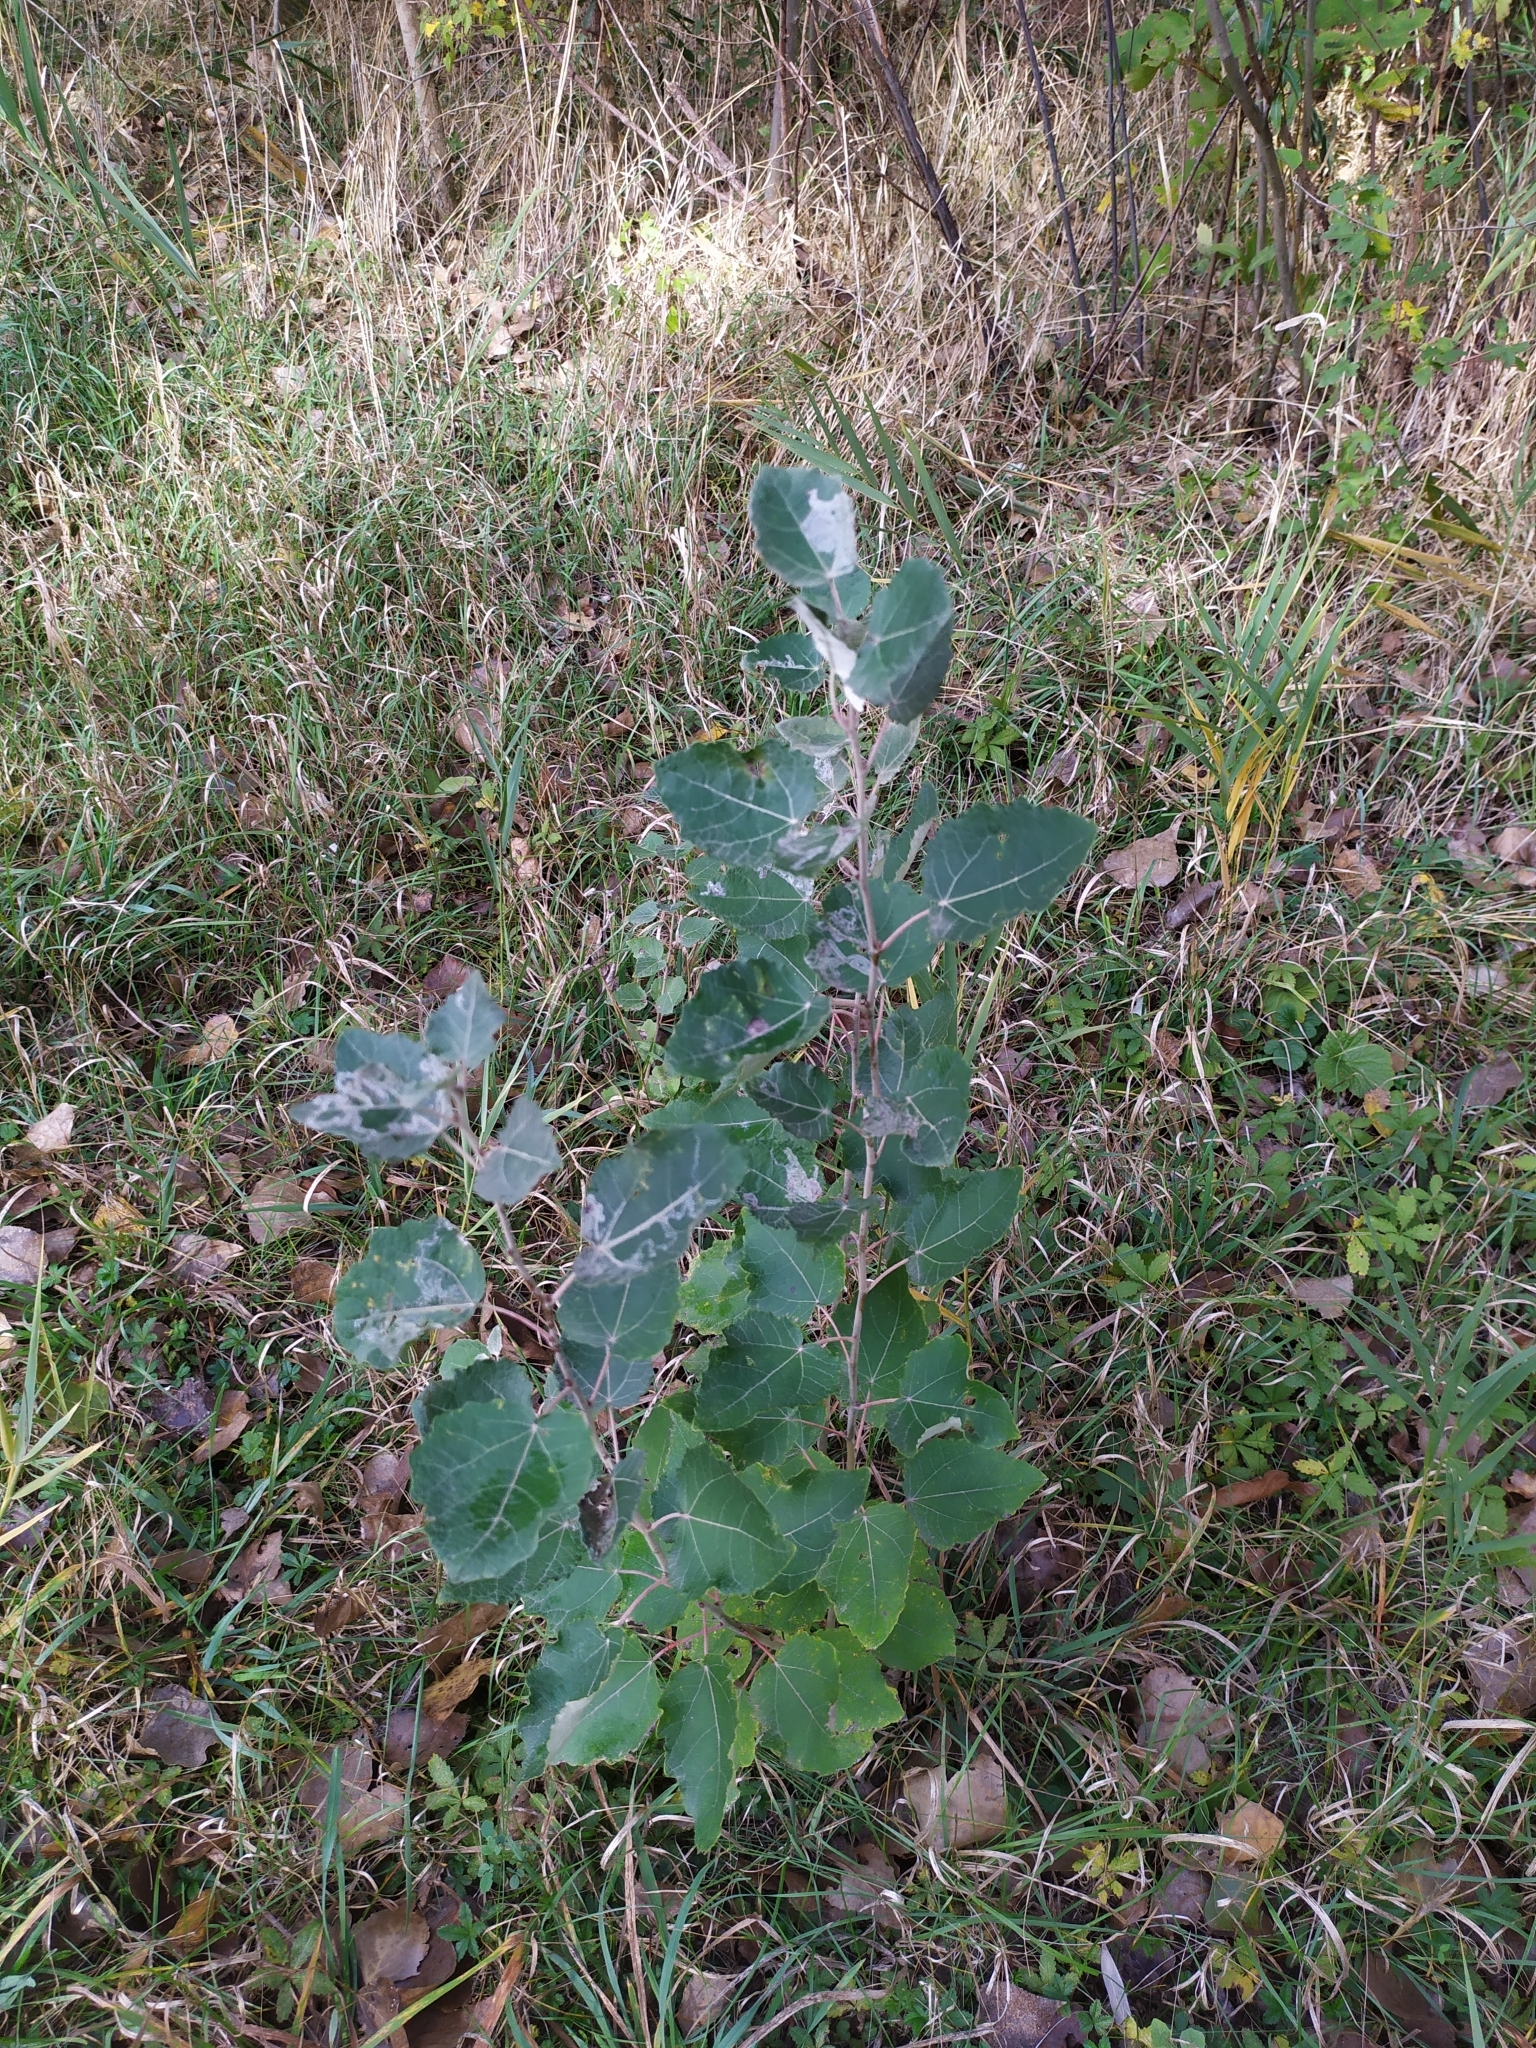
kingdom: Animalia
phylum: Arthropoda
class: Insecta
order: Lepidoptera
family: Gracillariidae
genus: Phyllocnistis
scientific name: Phyllocnistis labyrinthella
